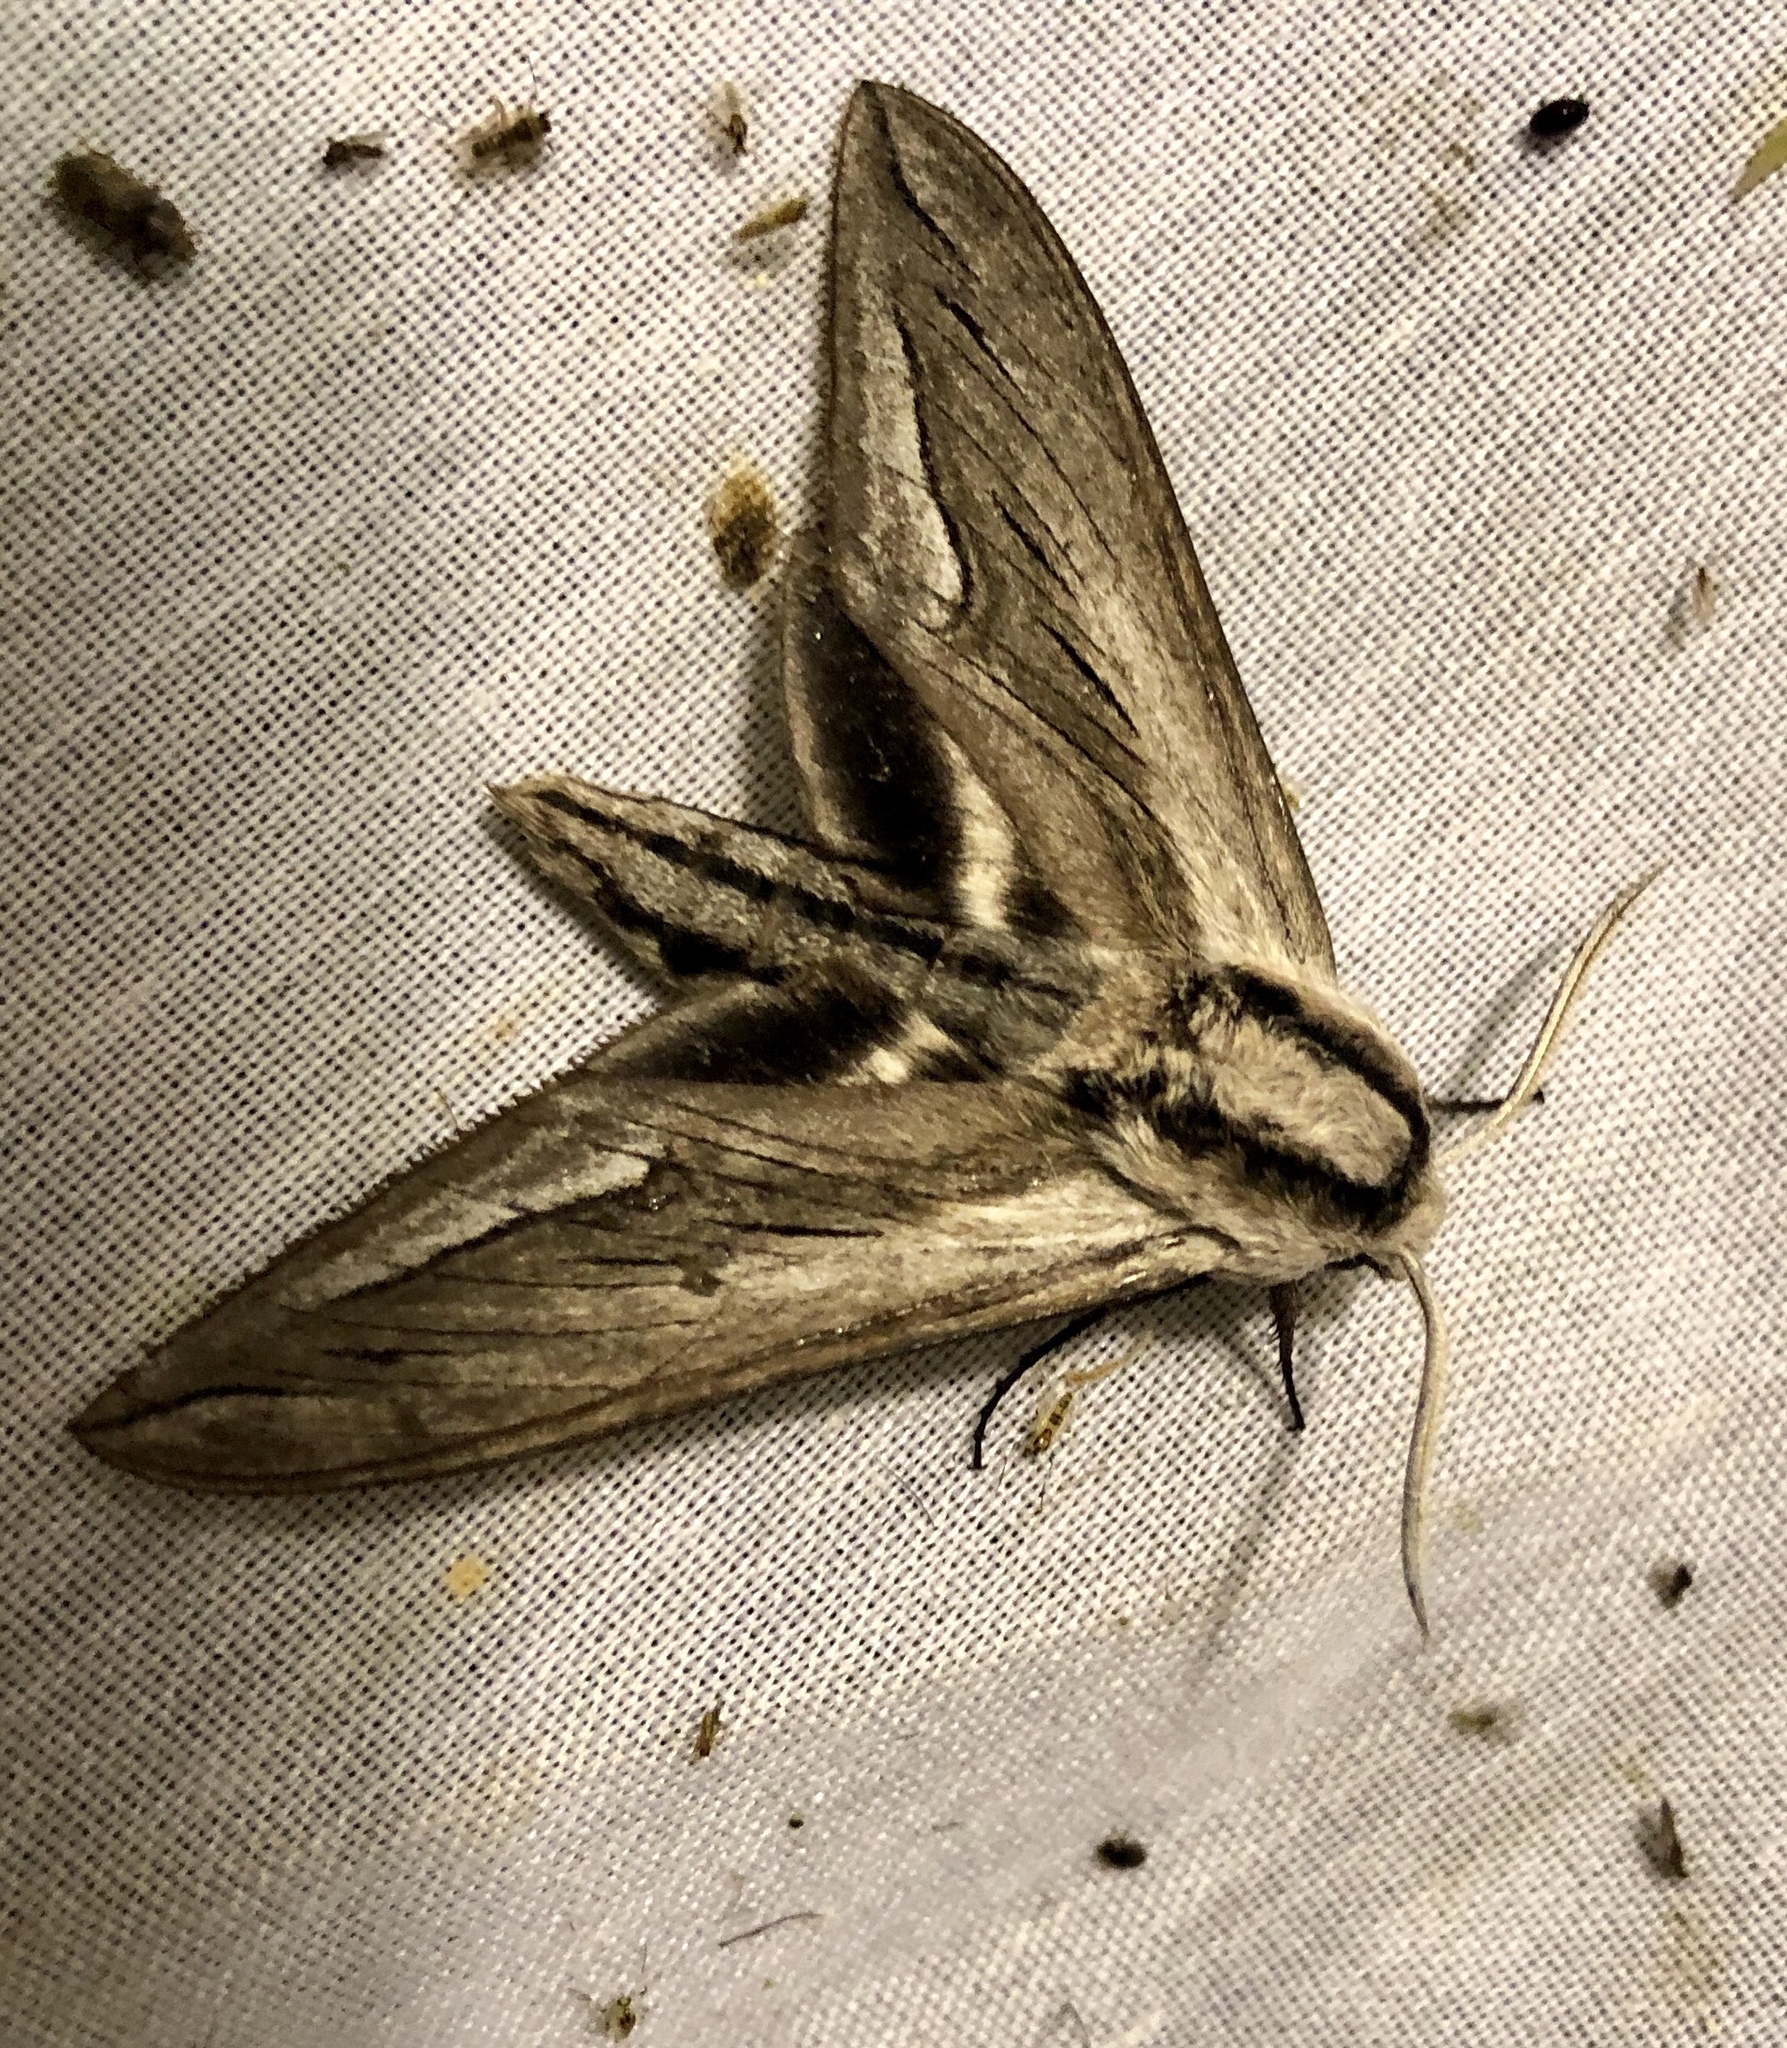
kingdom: Animalia
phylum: Arthropoda
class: Insecta
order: Lepidoptera
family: Sphingidae
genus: Sphinx
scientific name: Sphinx vashti
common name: Snowberry sphinx
